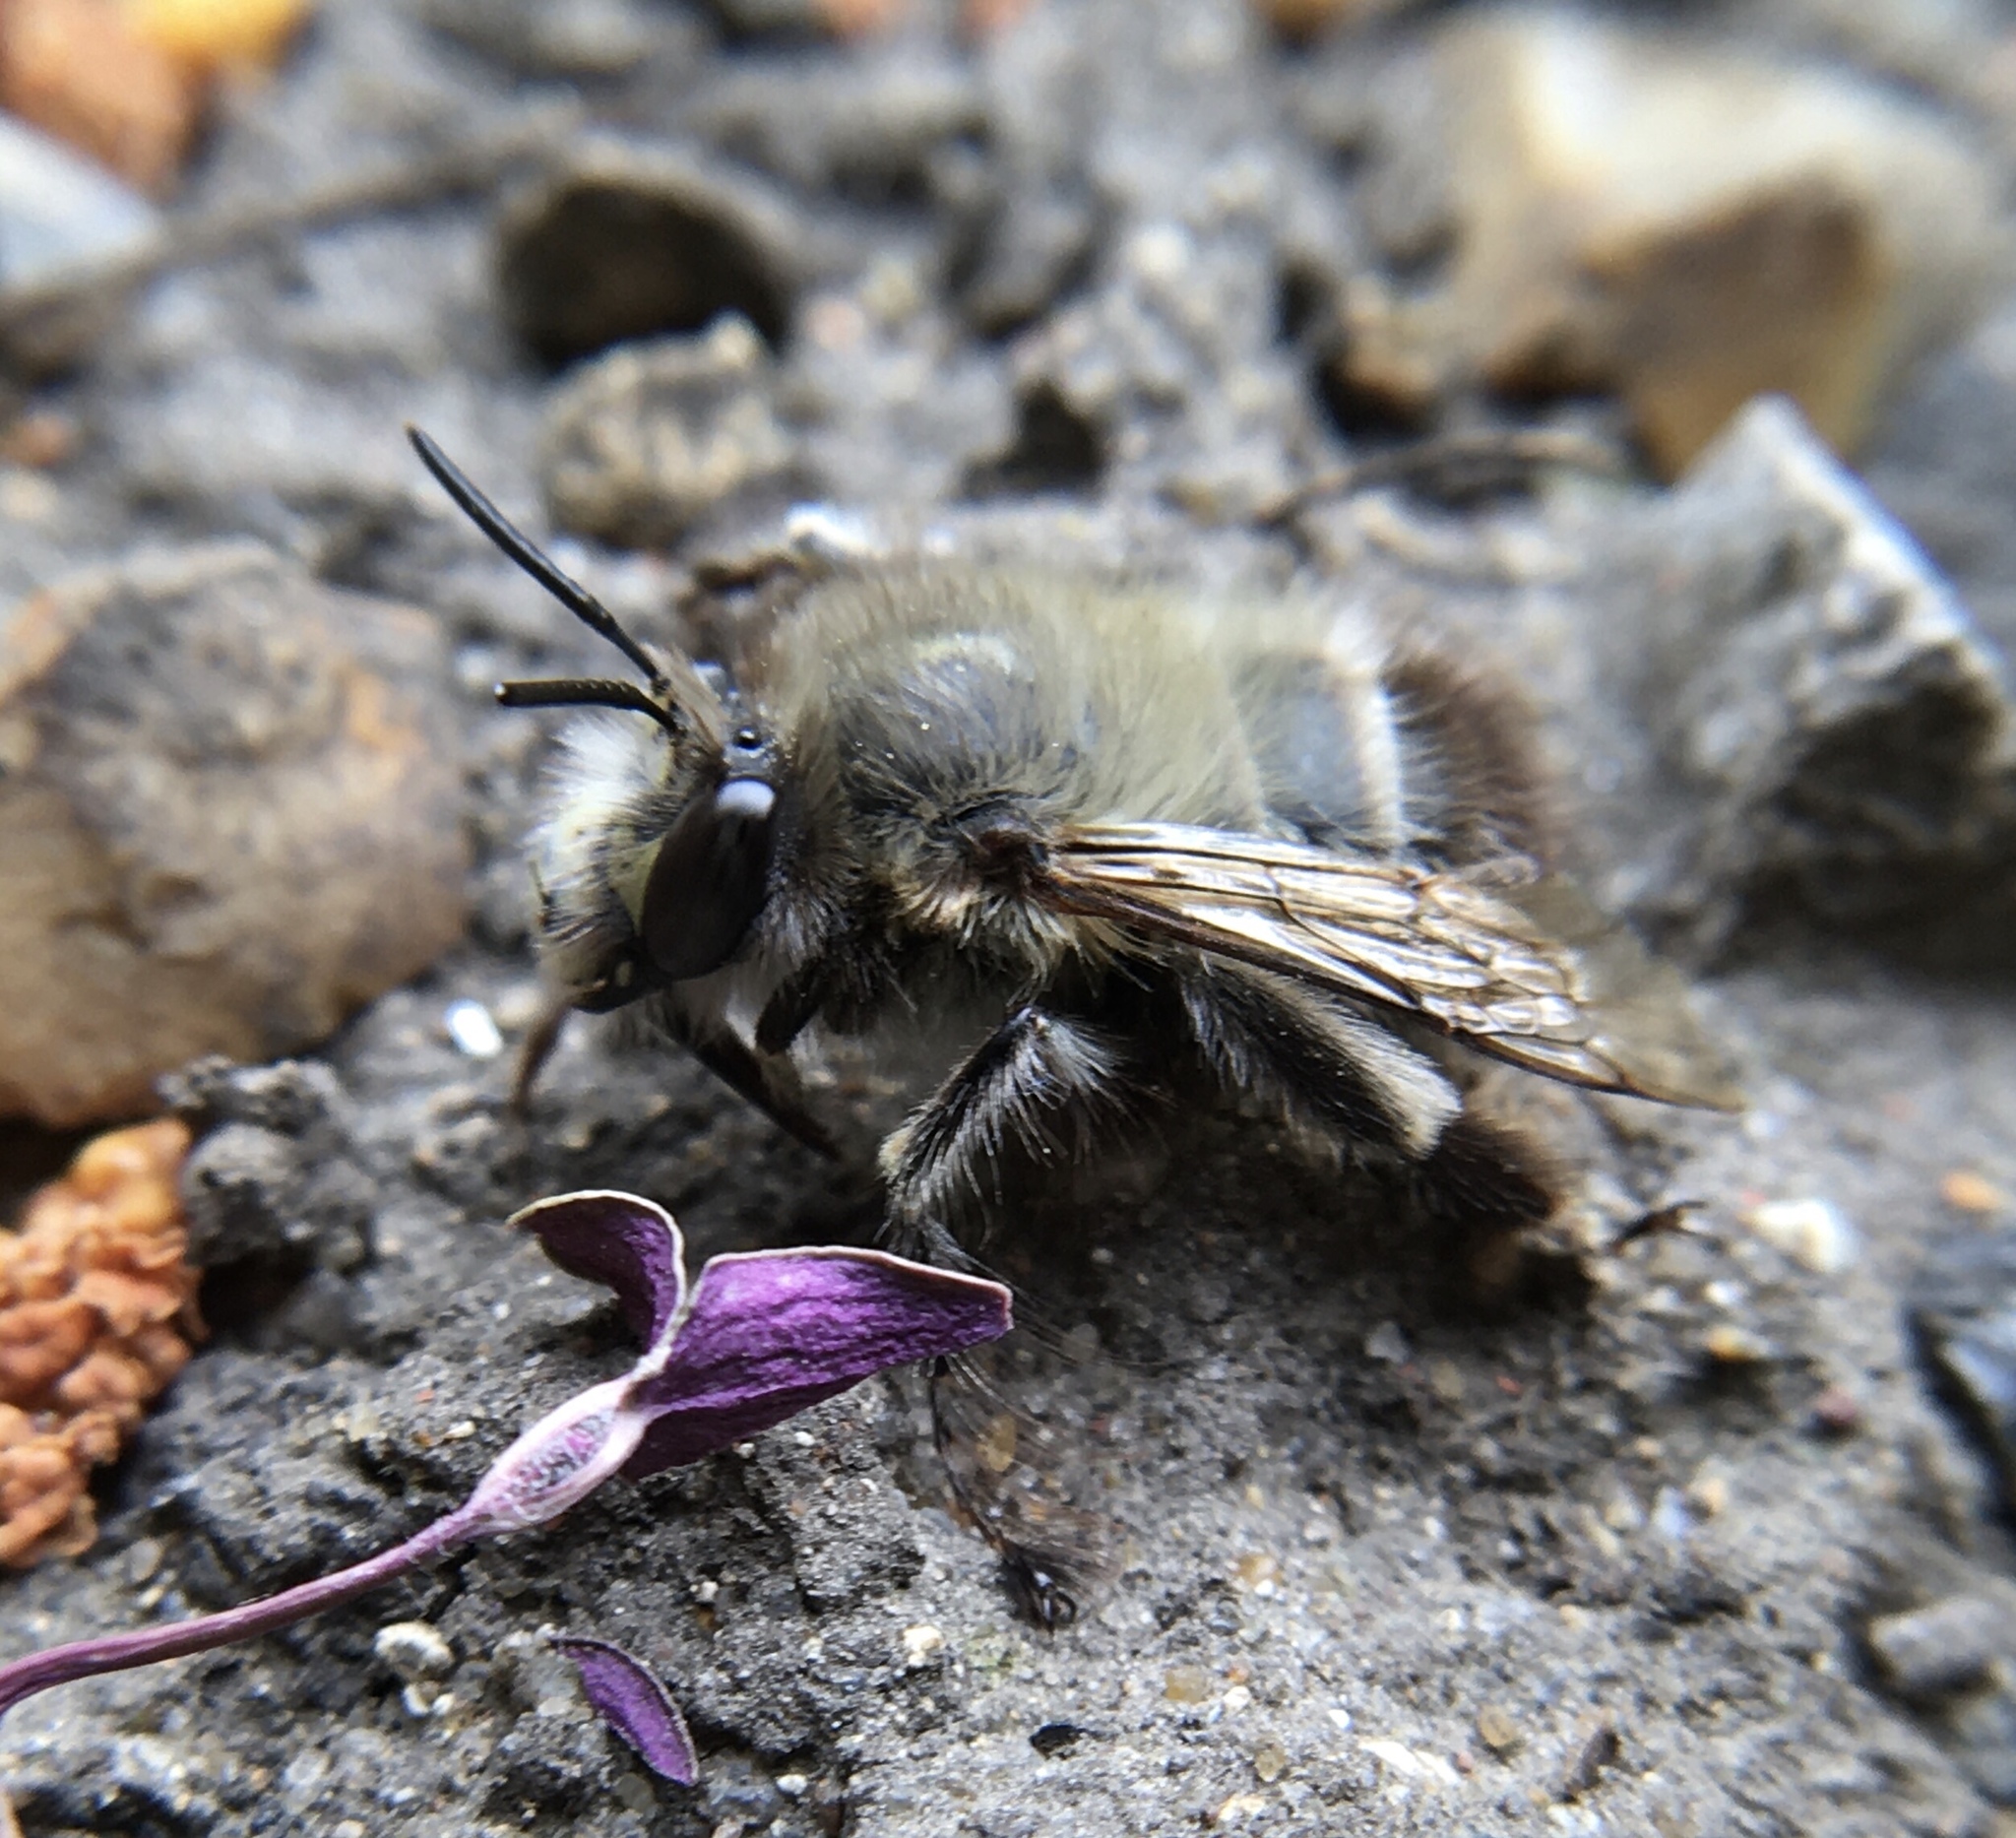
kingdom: Animalia
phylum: Arthropoda
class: Insecta
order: Hymenoptera
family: Apidae
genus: Anthophora
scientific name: Anthophora plumipes
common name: Hairy-footed flower bee
